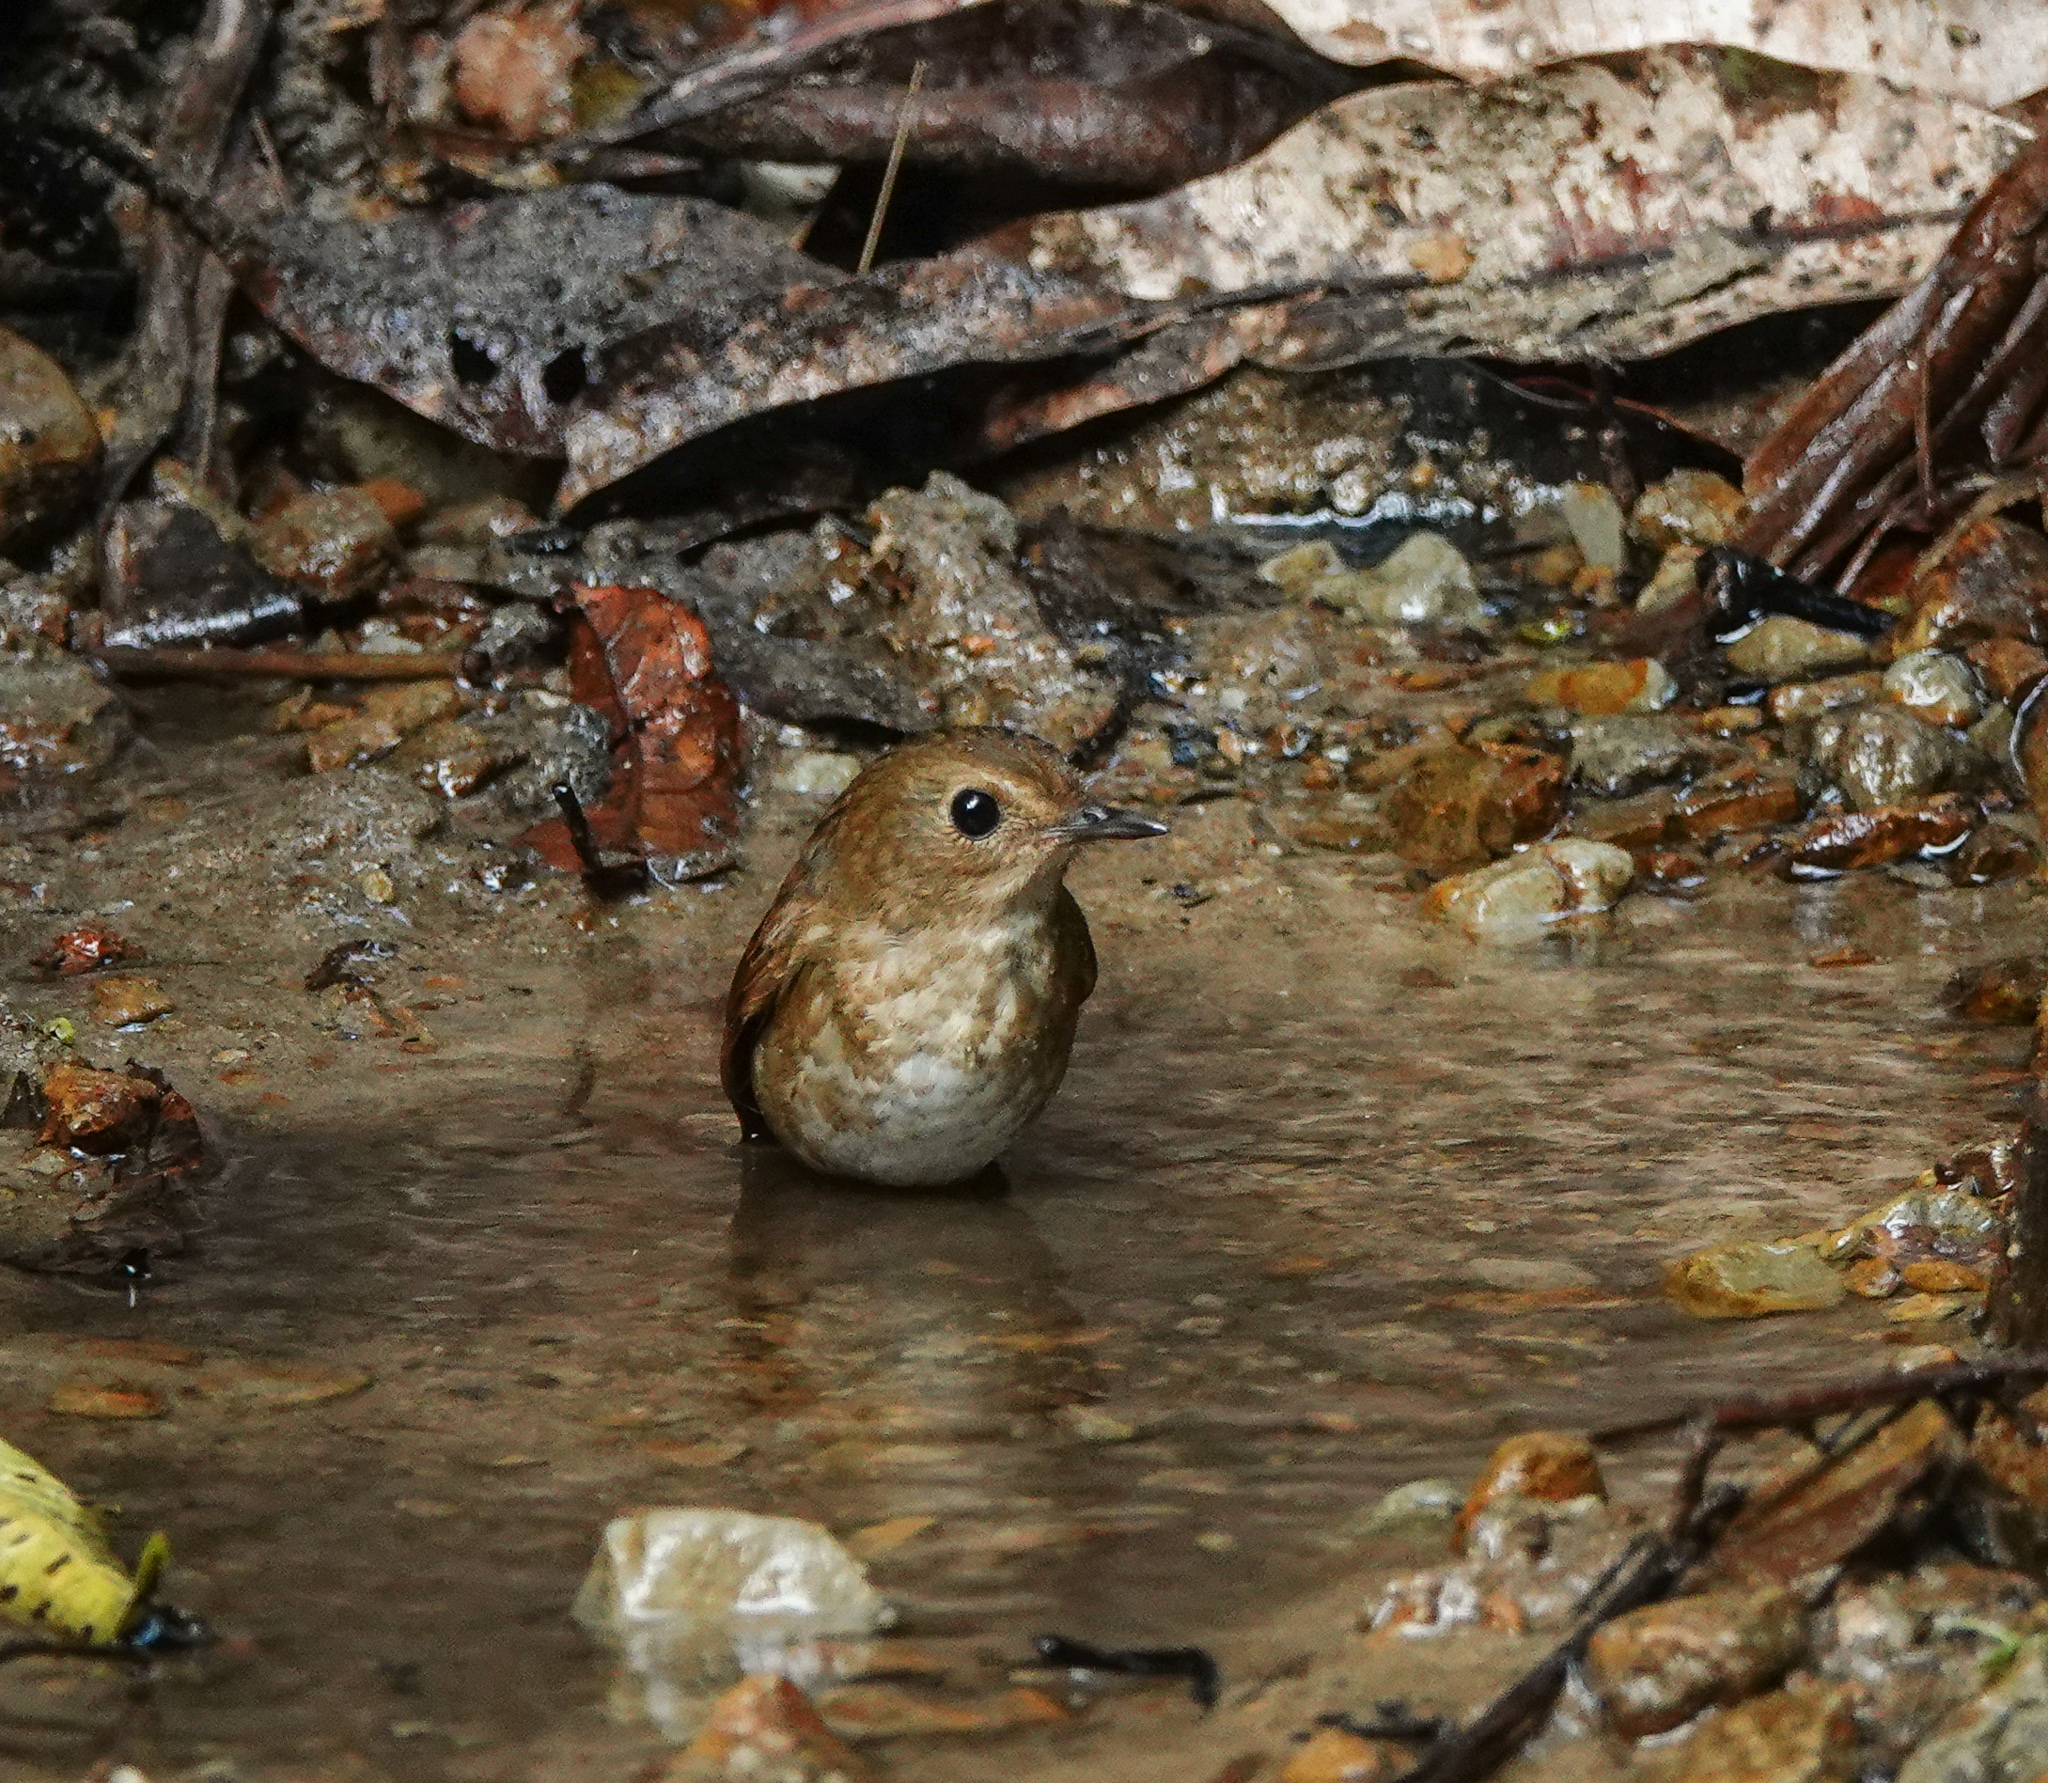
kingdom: Animalia
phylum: Chordata
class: Aves
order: Passeriformes
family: Muscicapidae
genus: Brachypteryx
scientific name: Brachypteryx leucophris
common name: Lesser shortwing
